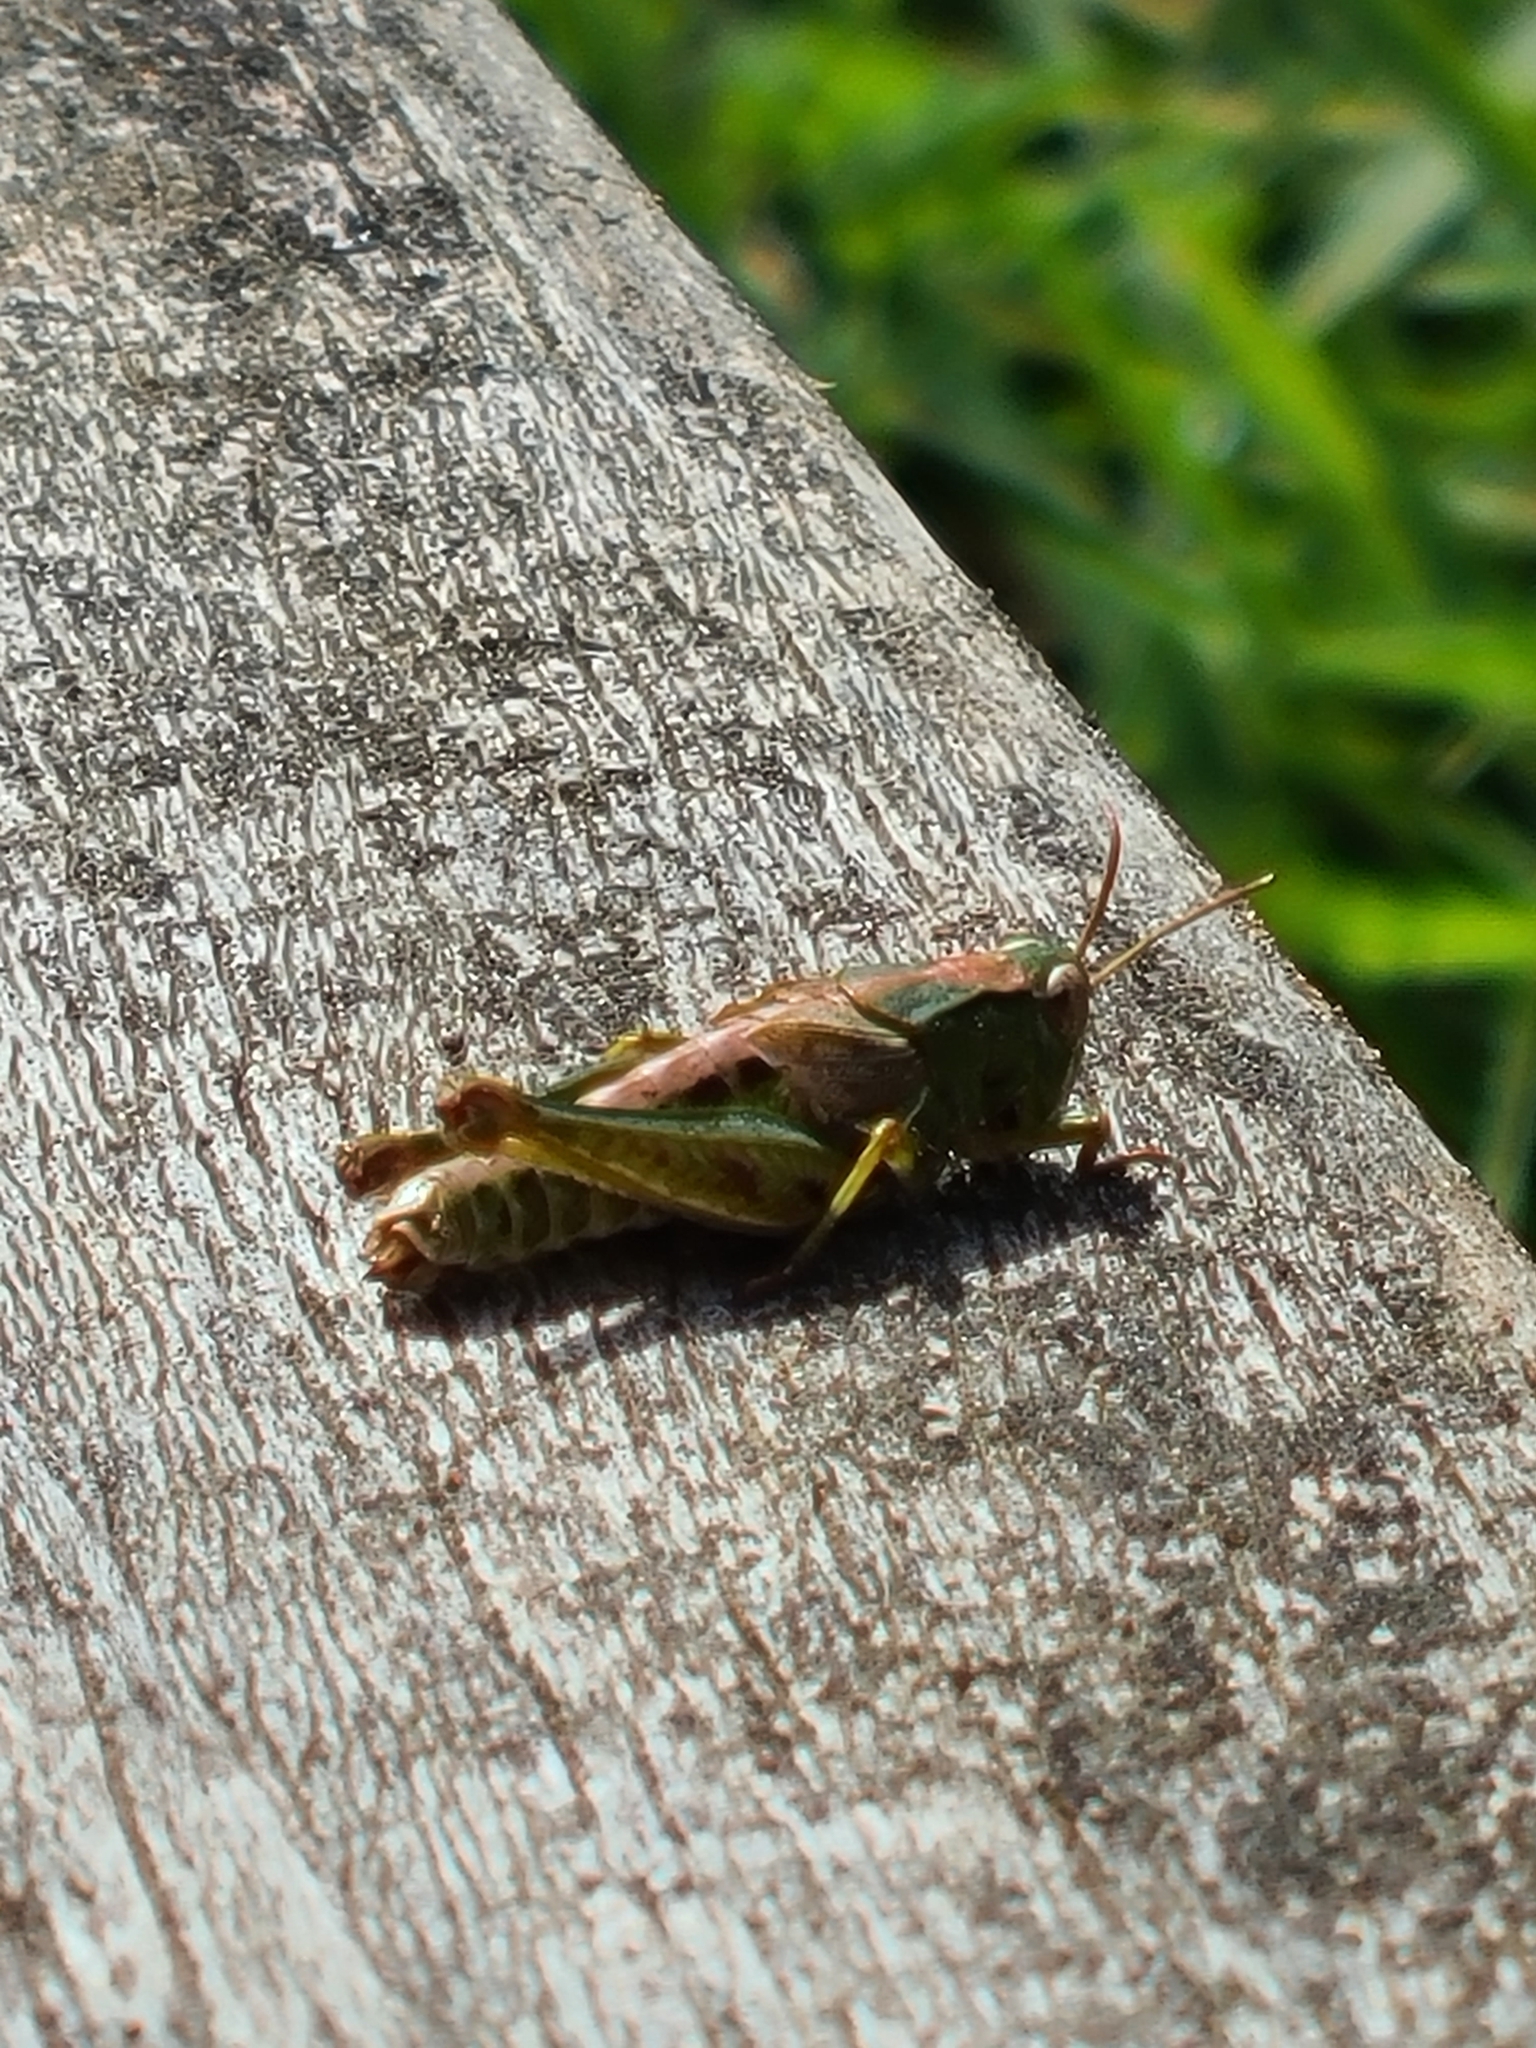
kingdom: Animalia
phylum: Arthropoda
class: Insecta
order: Orthoptera
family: Acrididae
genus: Phaulacridium
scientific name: Phaulacridium marginale
